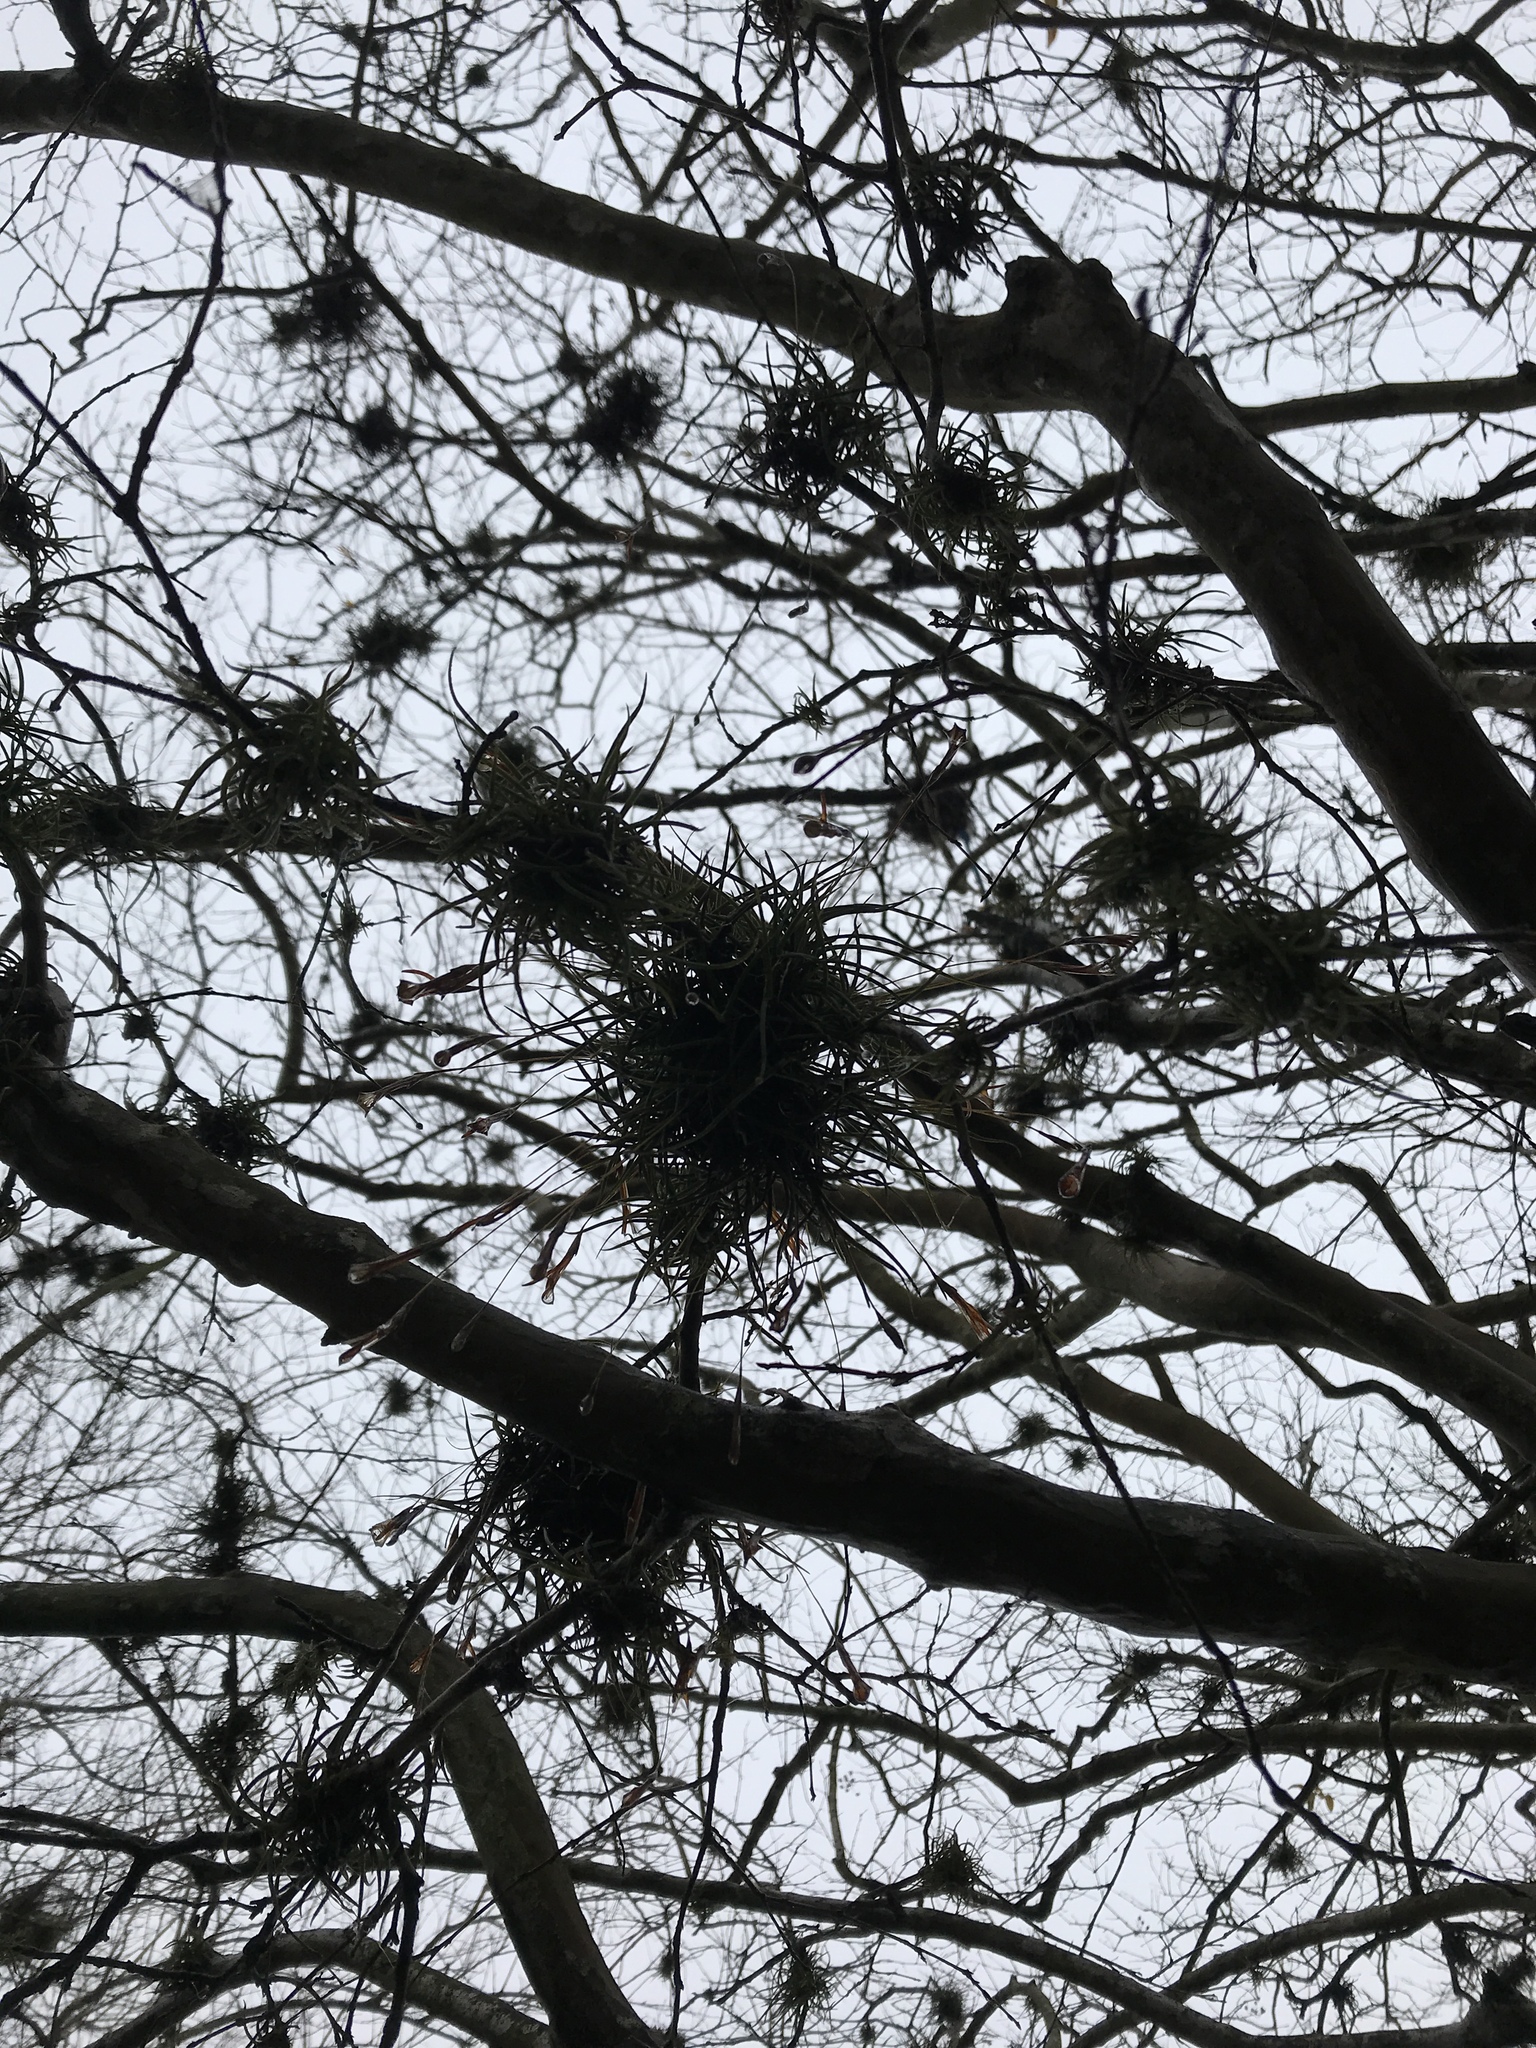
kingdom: Plantae
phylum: Tracheophyta
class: Liliopsida
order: Poales
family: Bromeliaceae
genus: Tillandsia
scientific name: Tillandsia recurvata
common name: Small ballmoss
